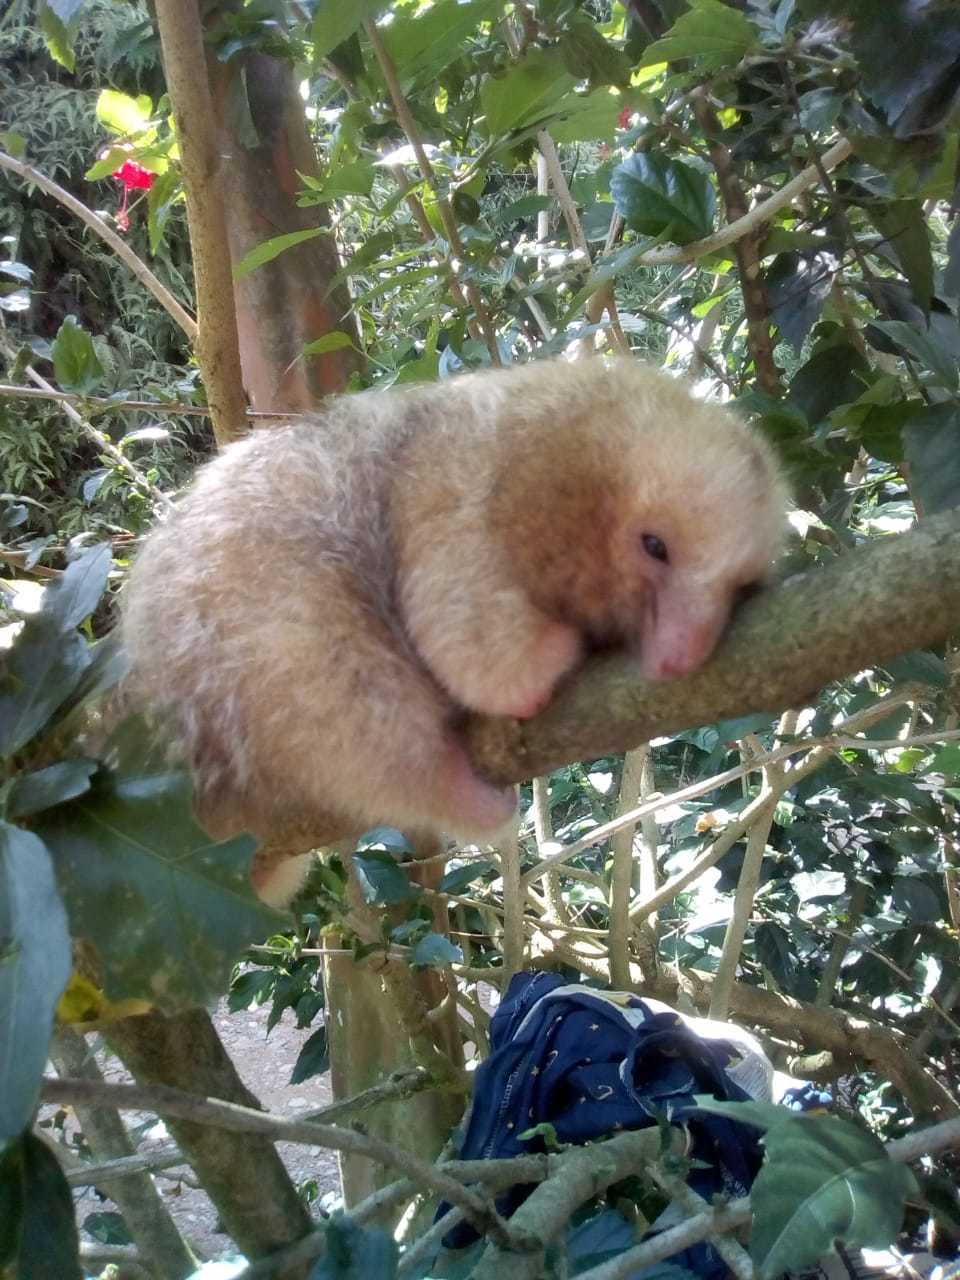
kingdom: Animalia
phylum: Chordata
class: Mammalia
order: Pilosa
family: Cyclopedidae
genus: Cyclopes
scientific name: Cyclopes dorsalis
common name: Central american silky anteater
